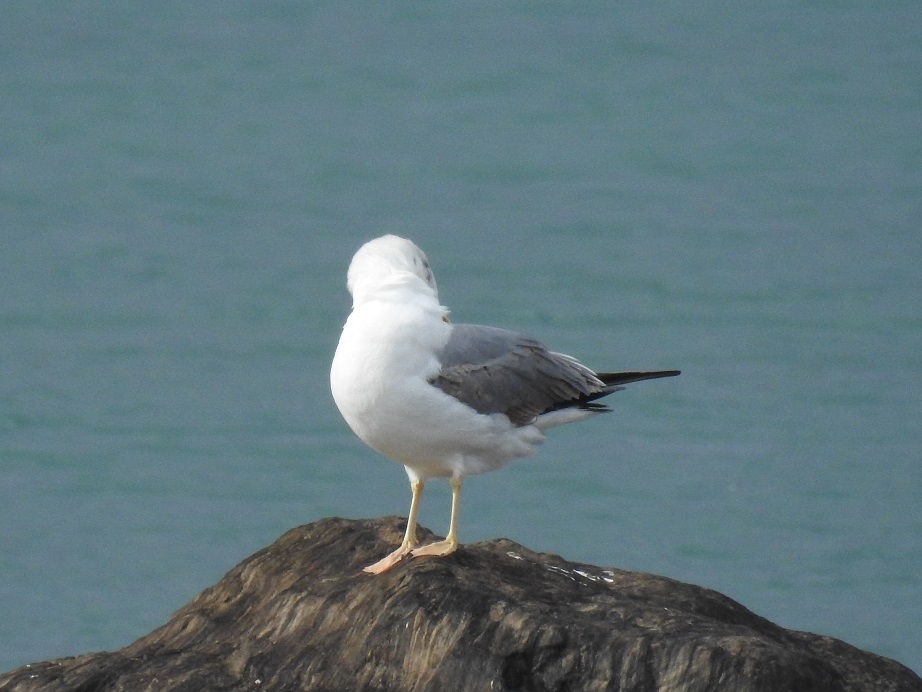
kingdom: Animalia
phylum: Chordata
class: Aves
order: Charadriiformes
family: Laridae
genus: Larus
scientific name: Larus michahellis
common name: Yellow-legged gull
